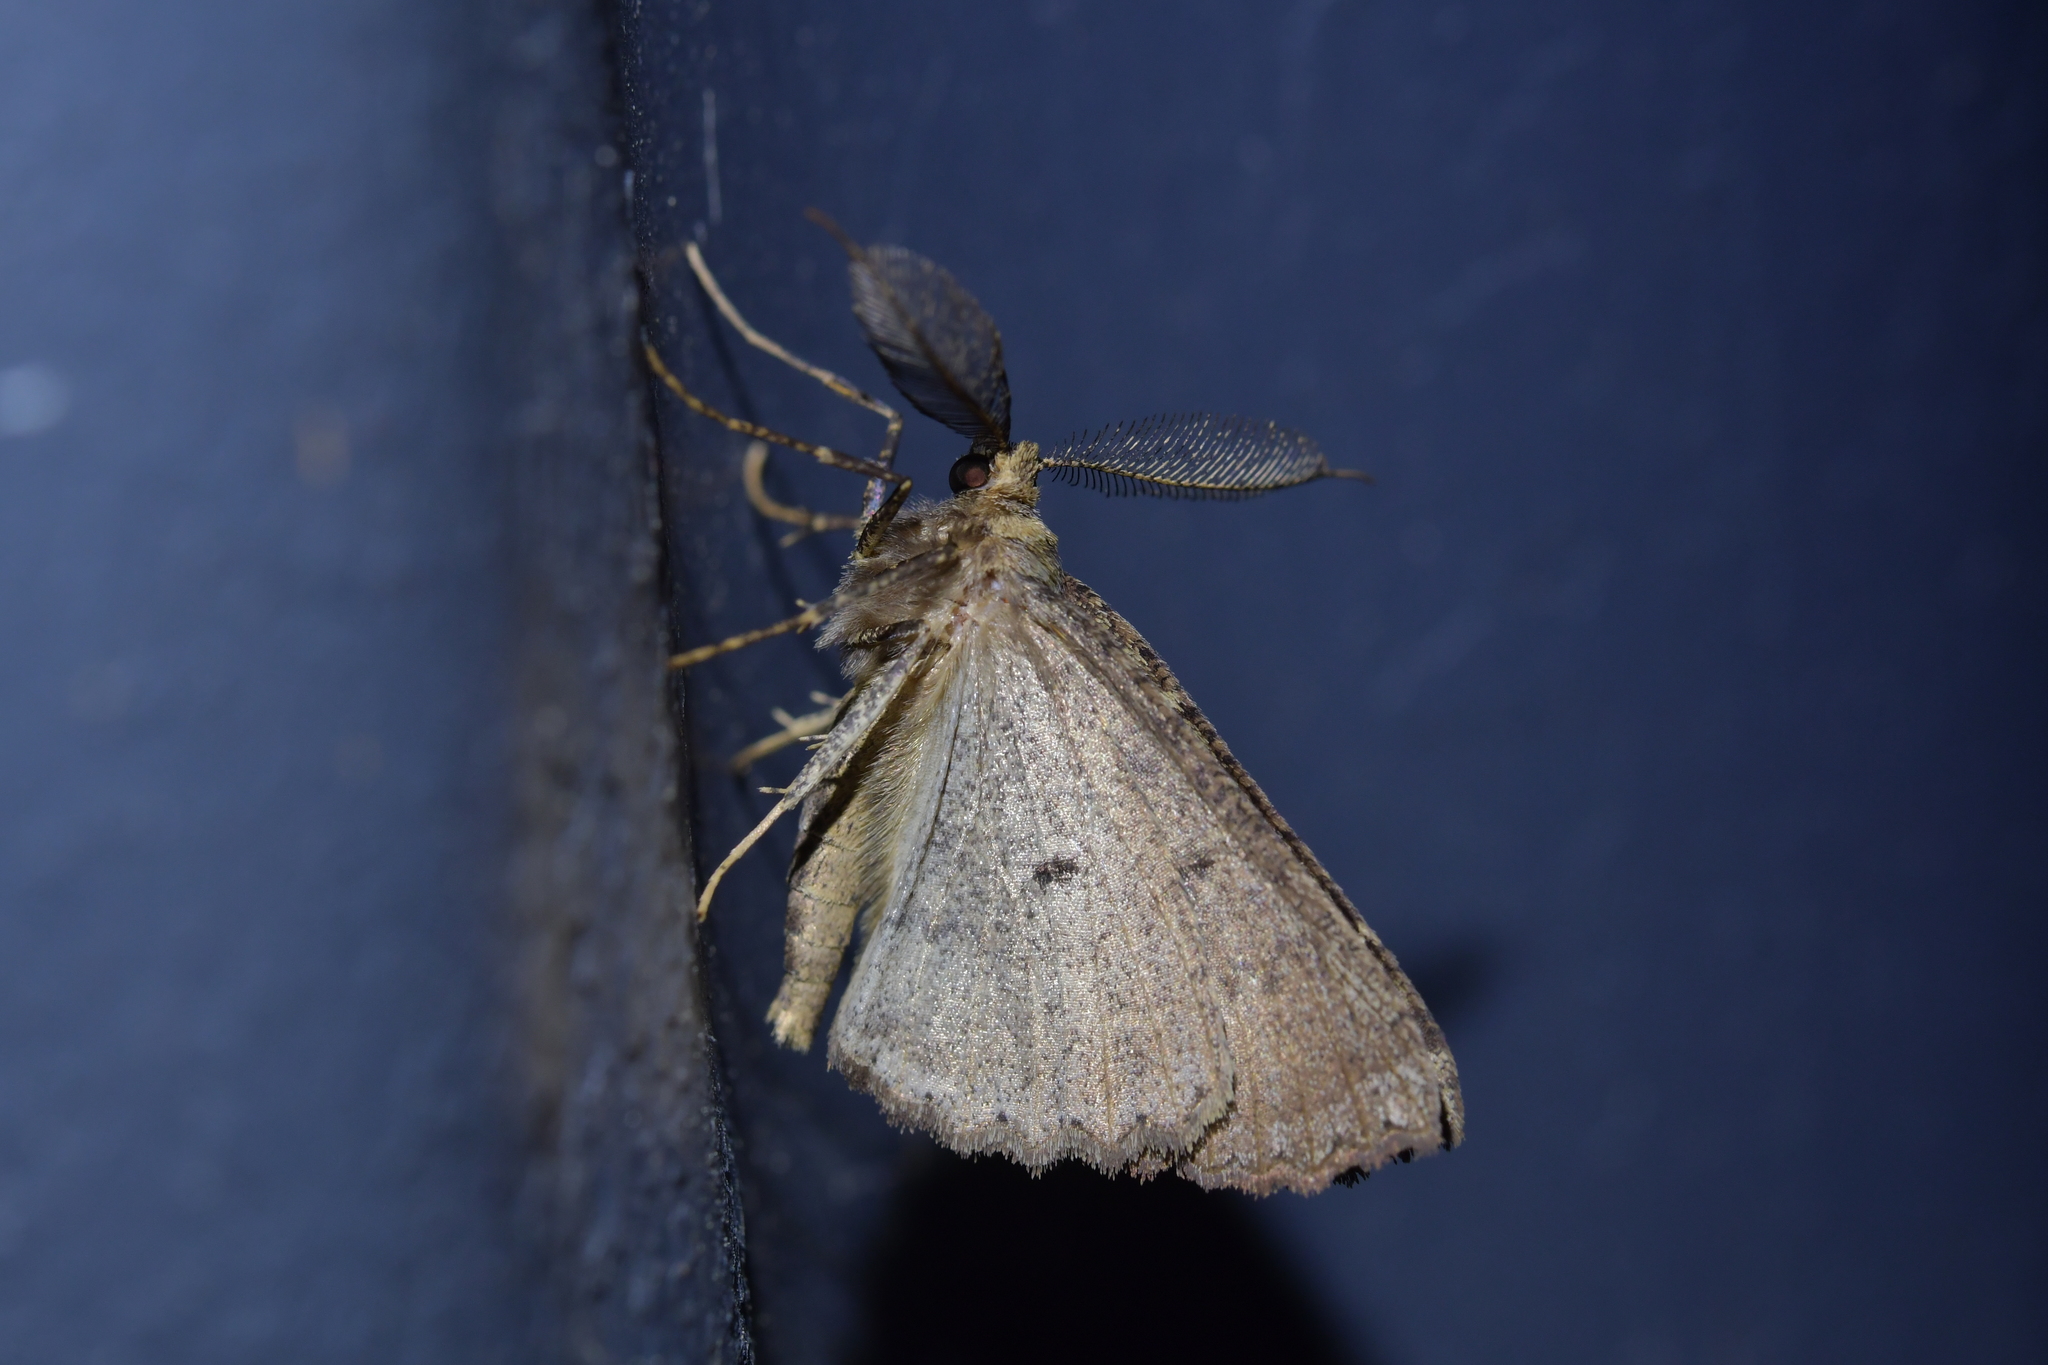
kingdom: Animalia
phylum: Arthropoda
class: Insecta
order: Lepidoptera
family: Geometridae
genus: Cleora
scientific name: Cleora scriptaria
